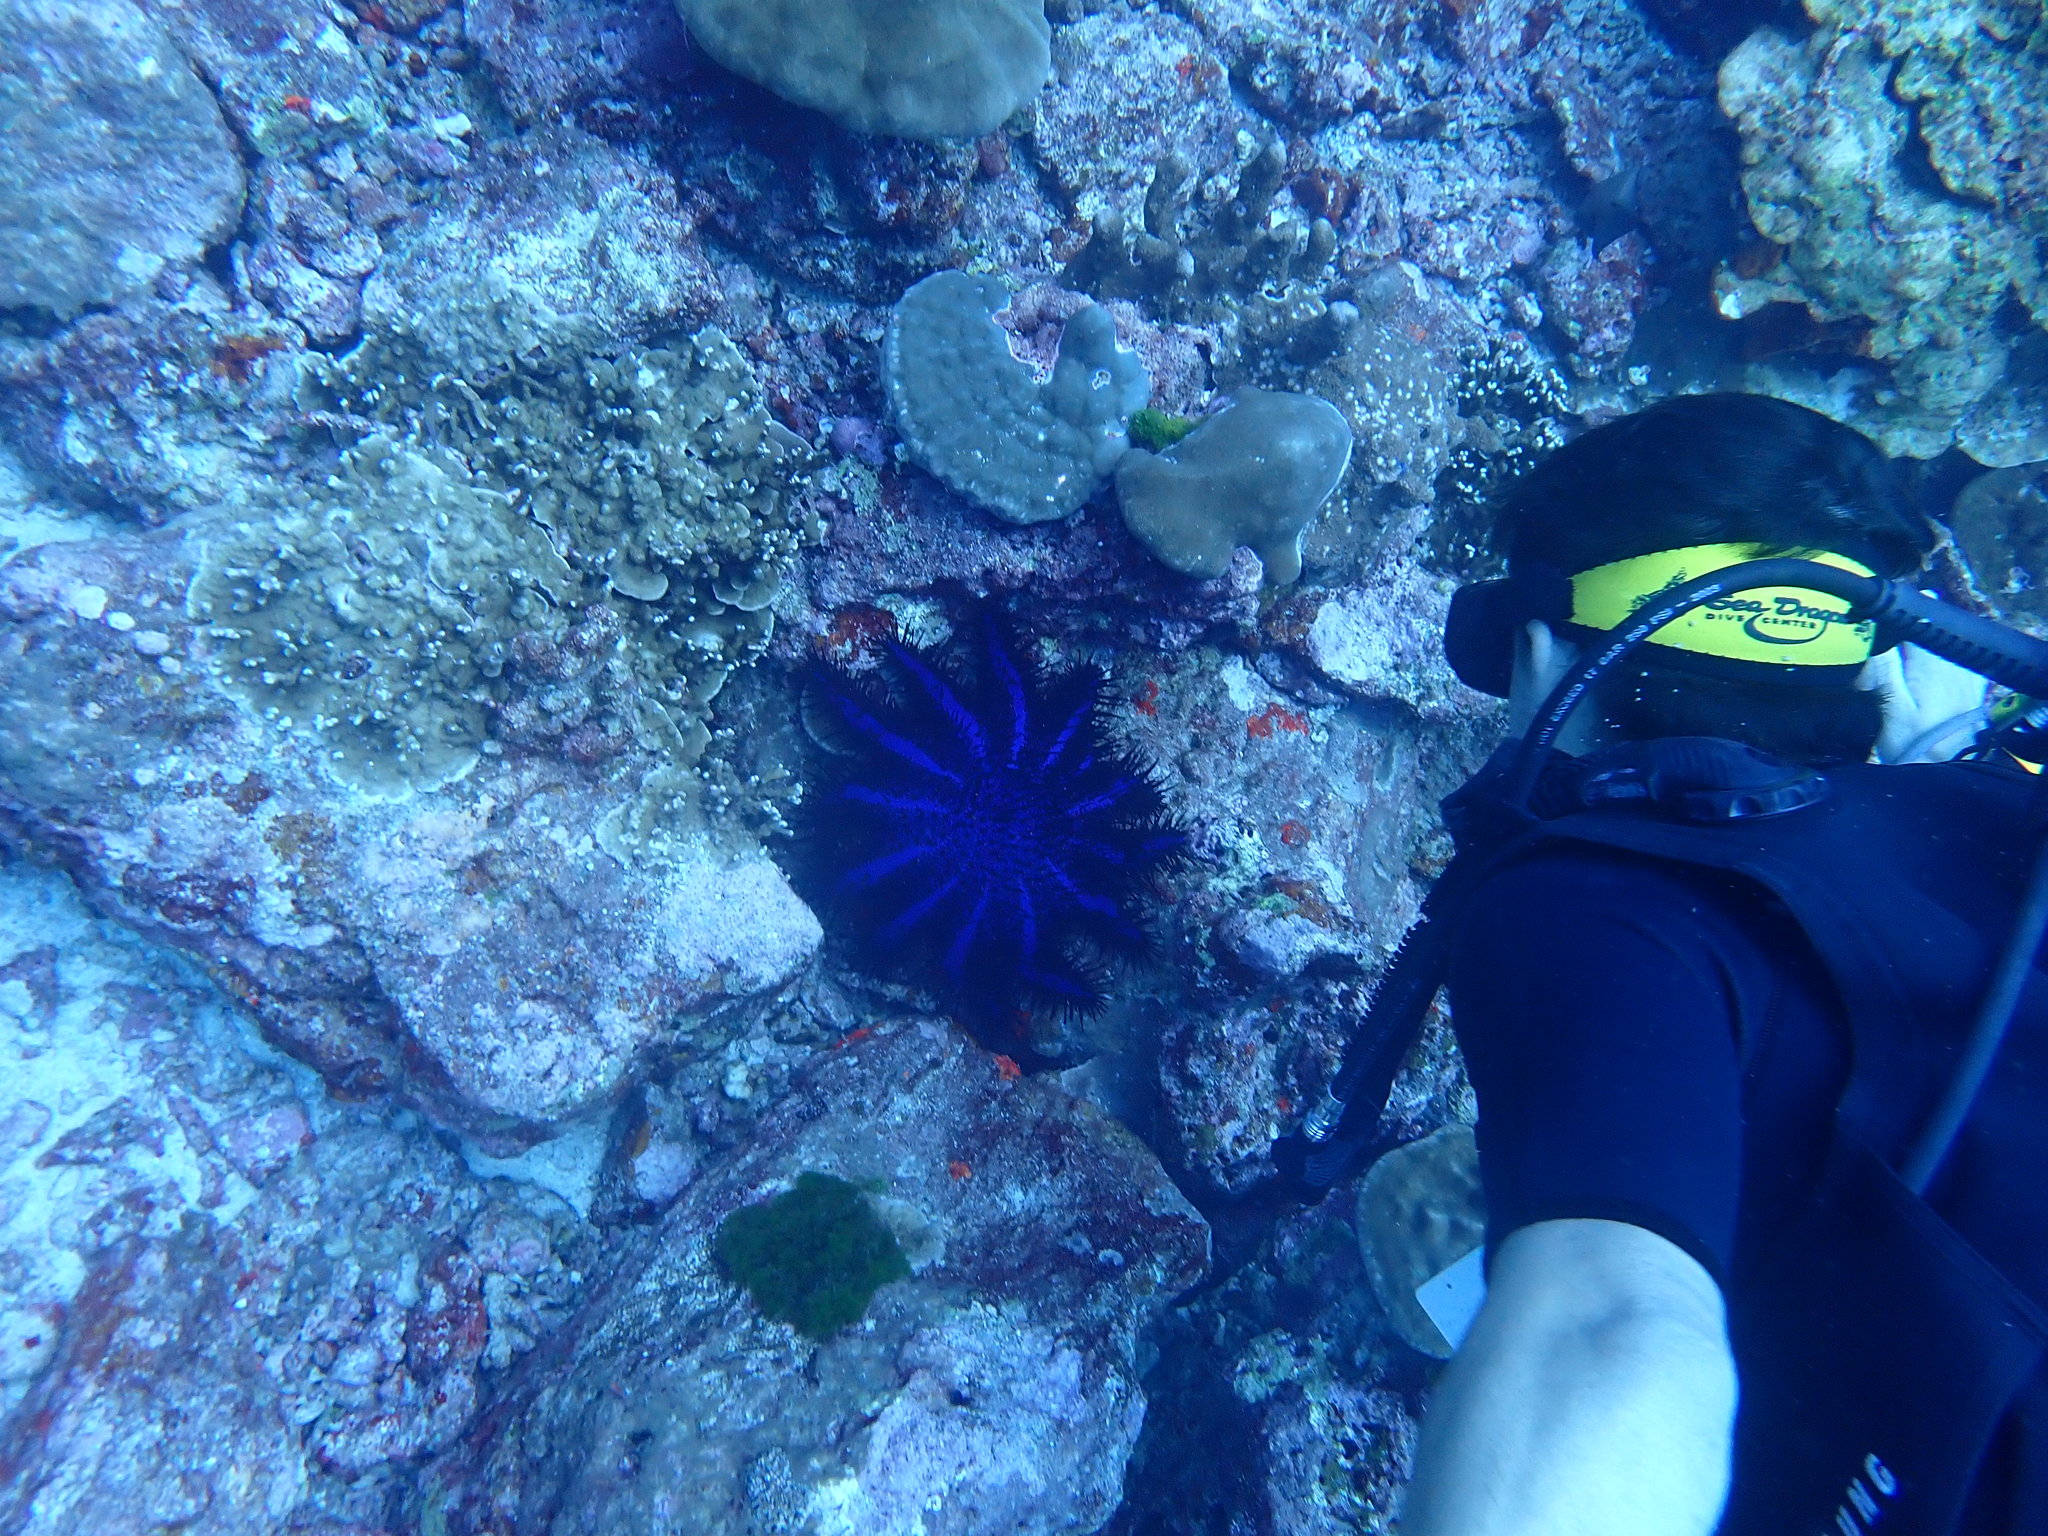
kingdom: Animalia
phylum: Echinodermata
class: Asteroidea
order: Valvatida
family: Acanthasteridae
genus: Acanthaster
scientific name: Acanthaster planci
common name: Crown-of-thorns
